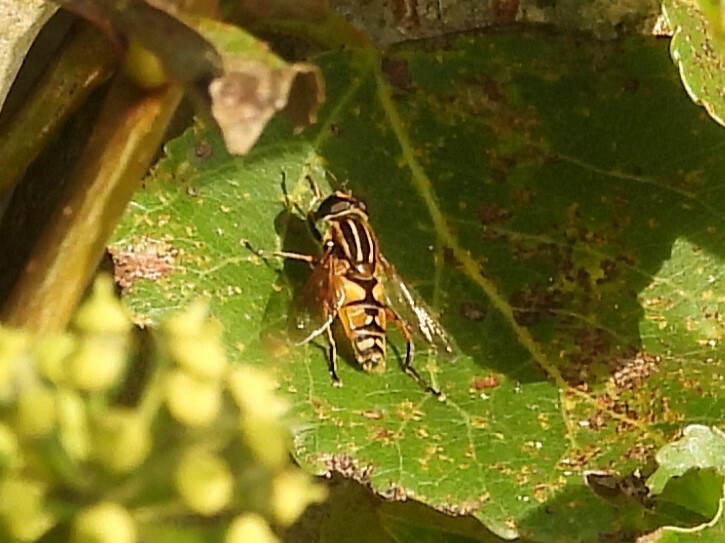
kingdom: Animalia
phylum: Arthropoda
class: Insecta
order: Diptera
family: Syrphidae
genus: Helophilus
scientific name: Helophilus pendulus
